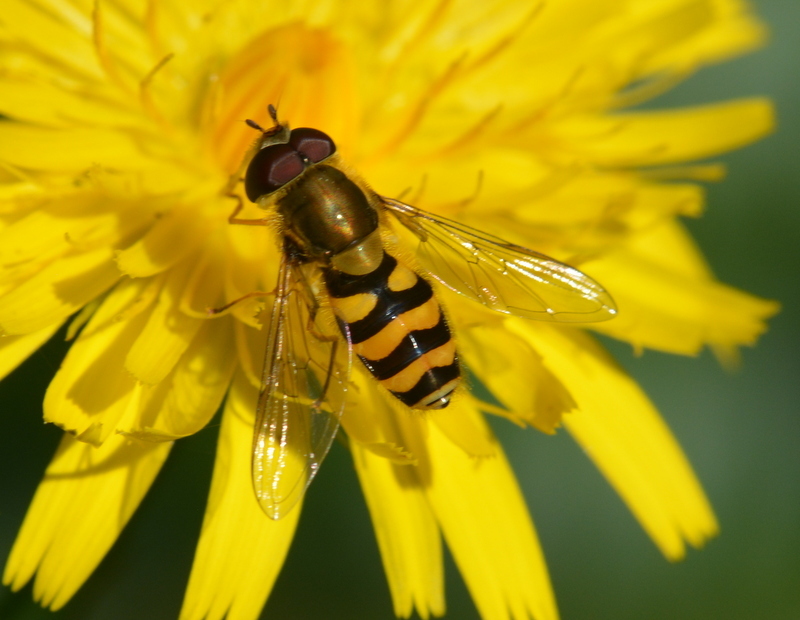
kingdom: Animalia
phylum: Arthropoda
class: Insecta
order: Diptera
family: Syrphidae
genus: Syrphus
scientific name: Syrphus ribesii
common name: Common flower fly
